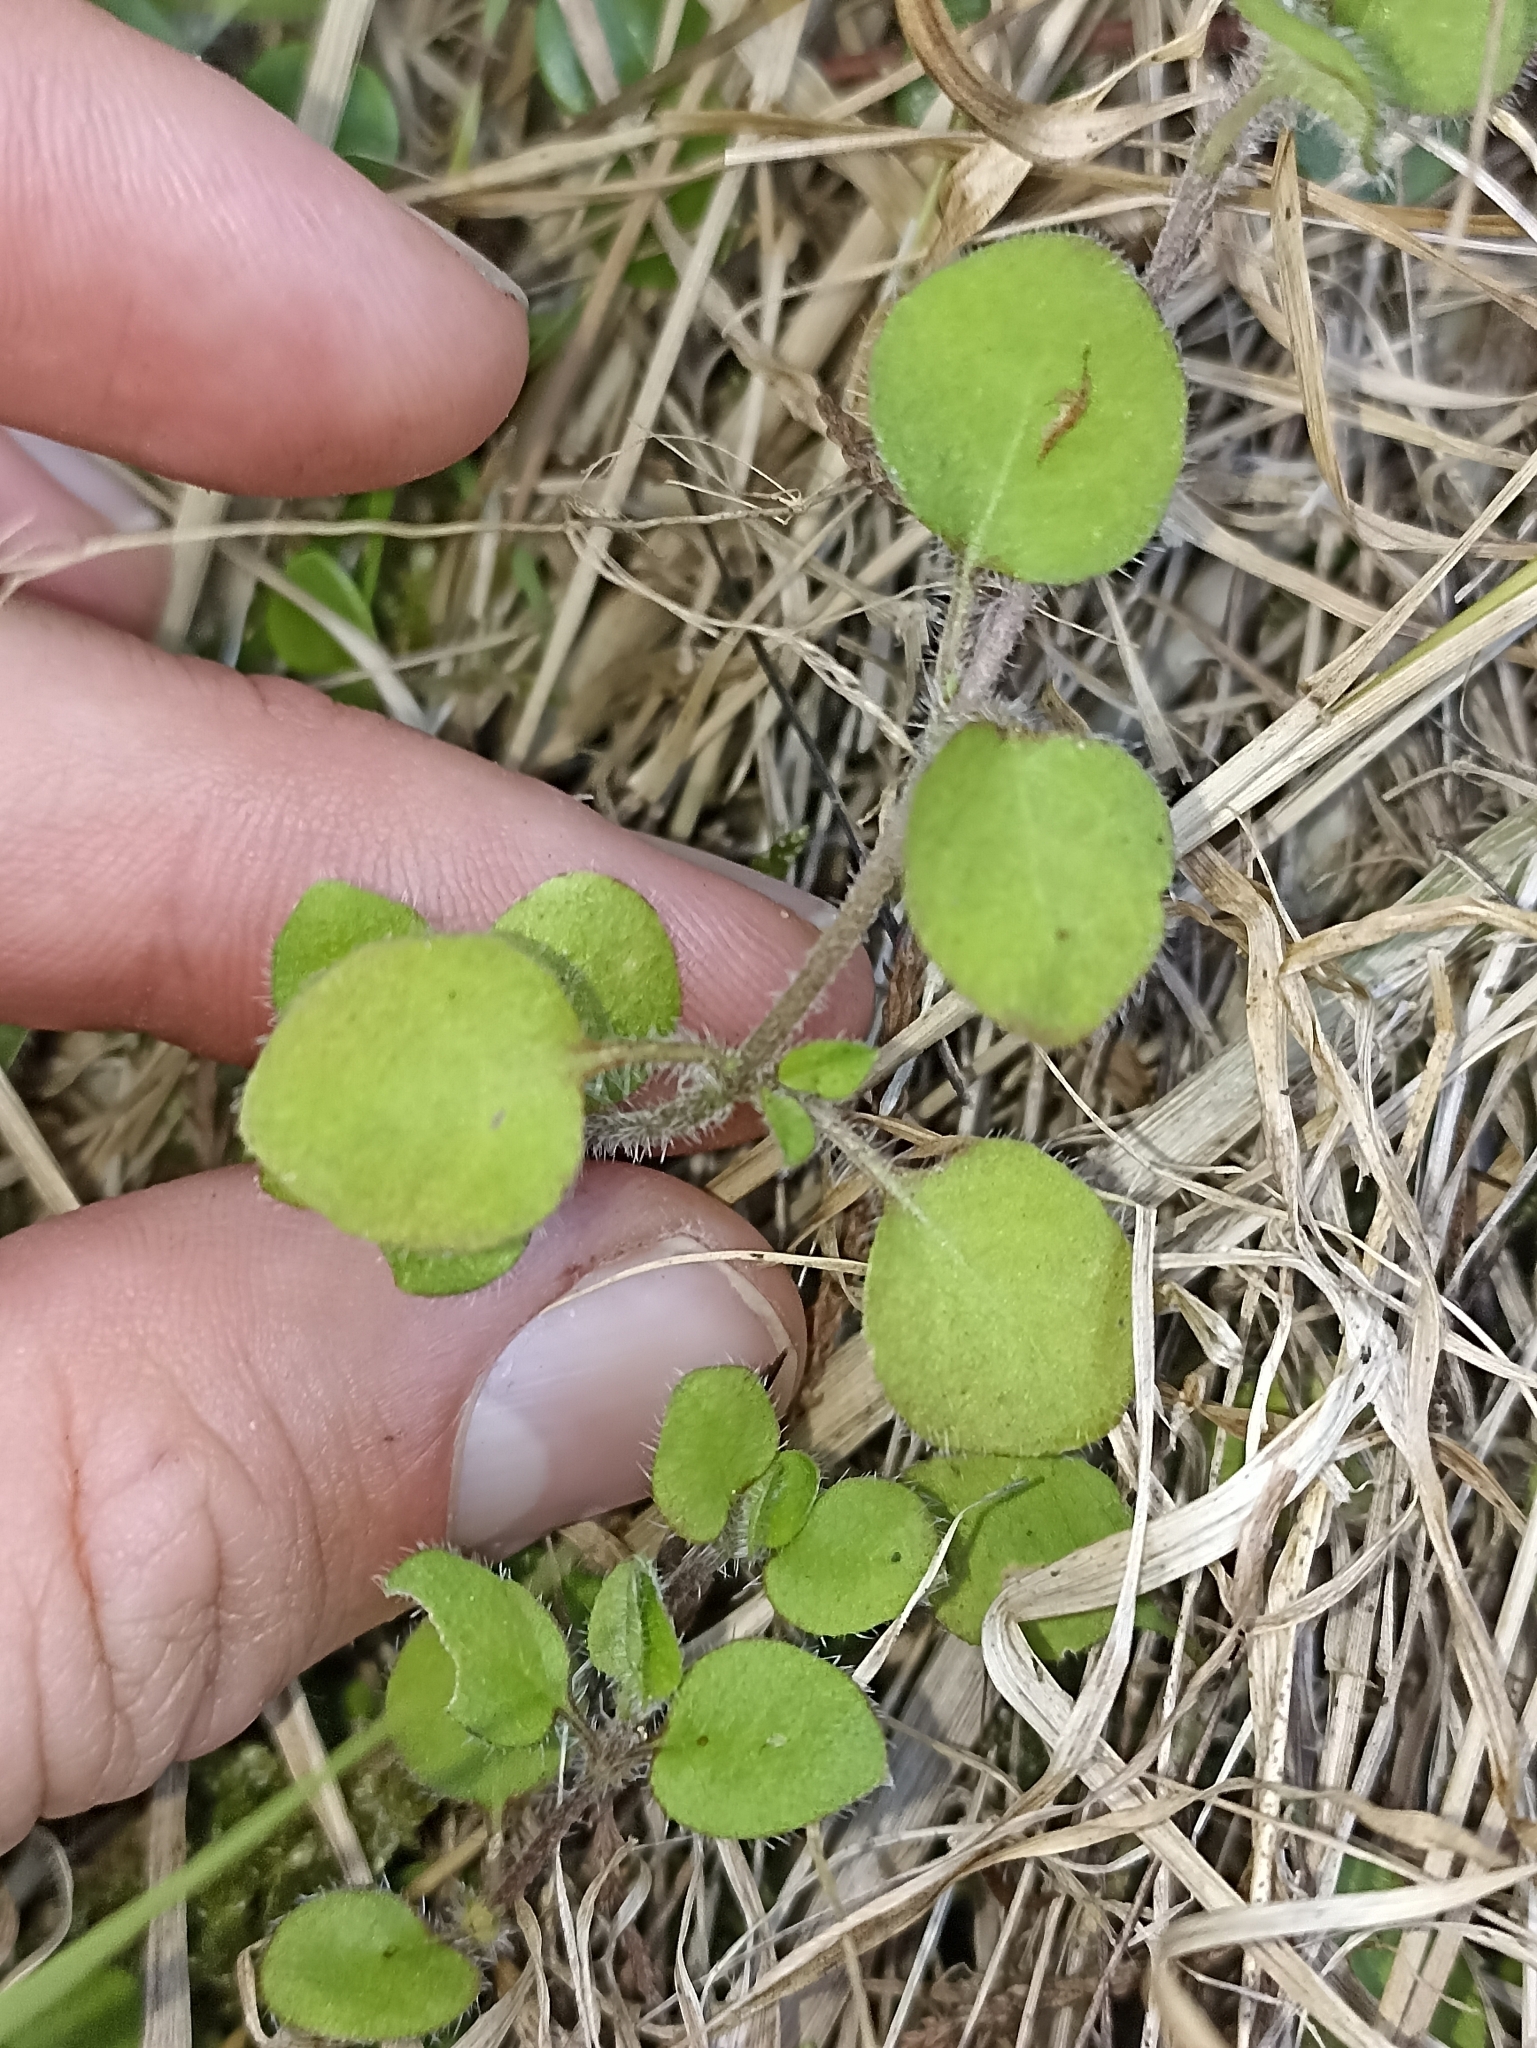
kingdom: Plantae
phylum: Tracheophyta
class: Magnoliopsida
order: Gentianales
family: Rubiaceae
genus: Leptostigma
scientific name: Leptostigma setulosum
